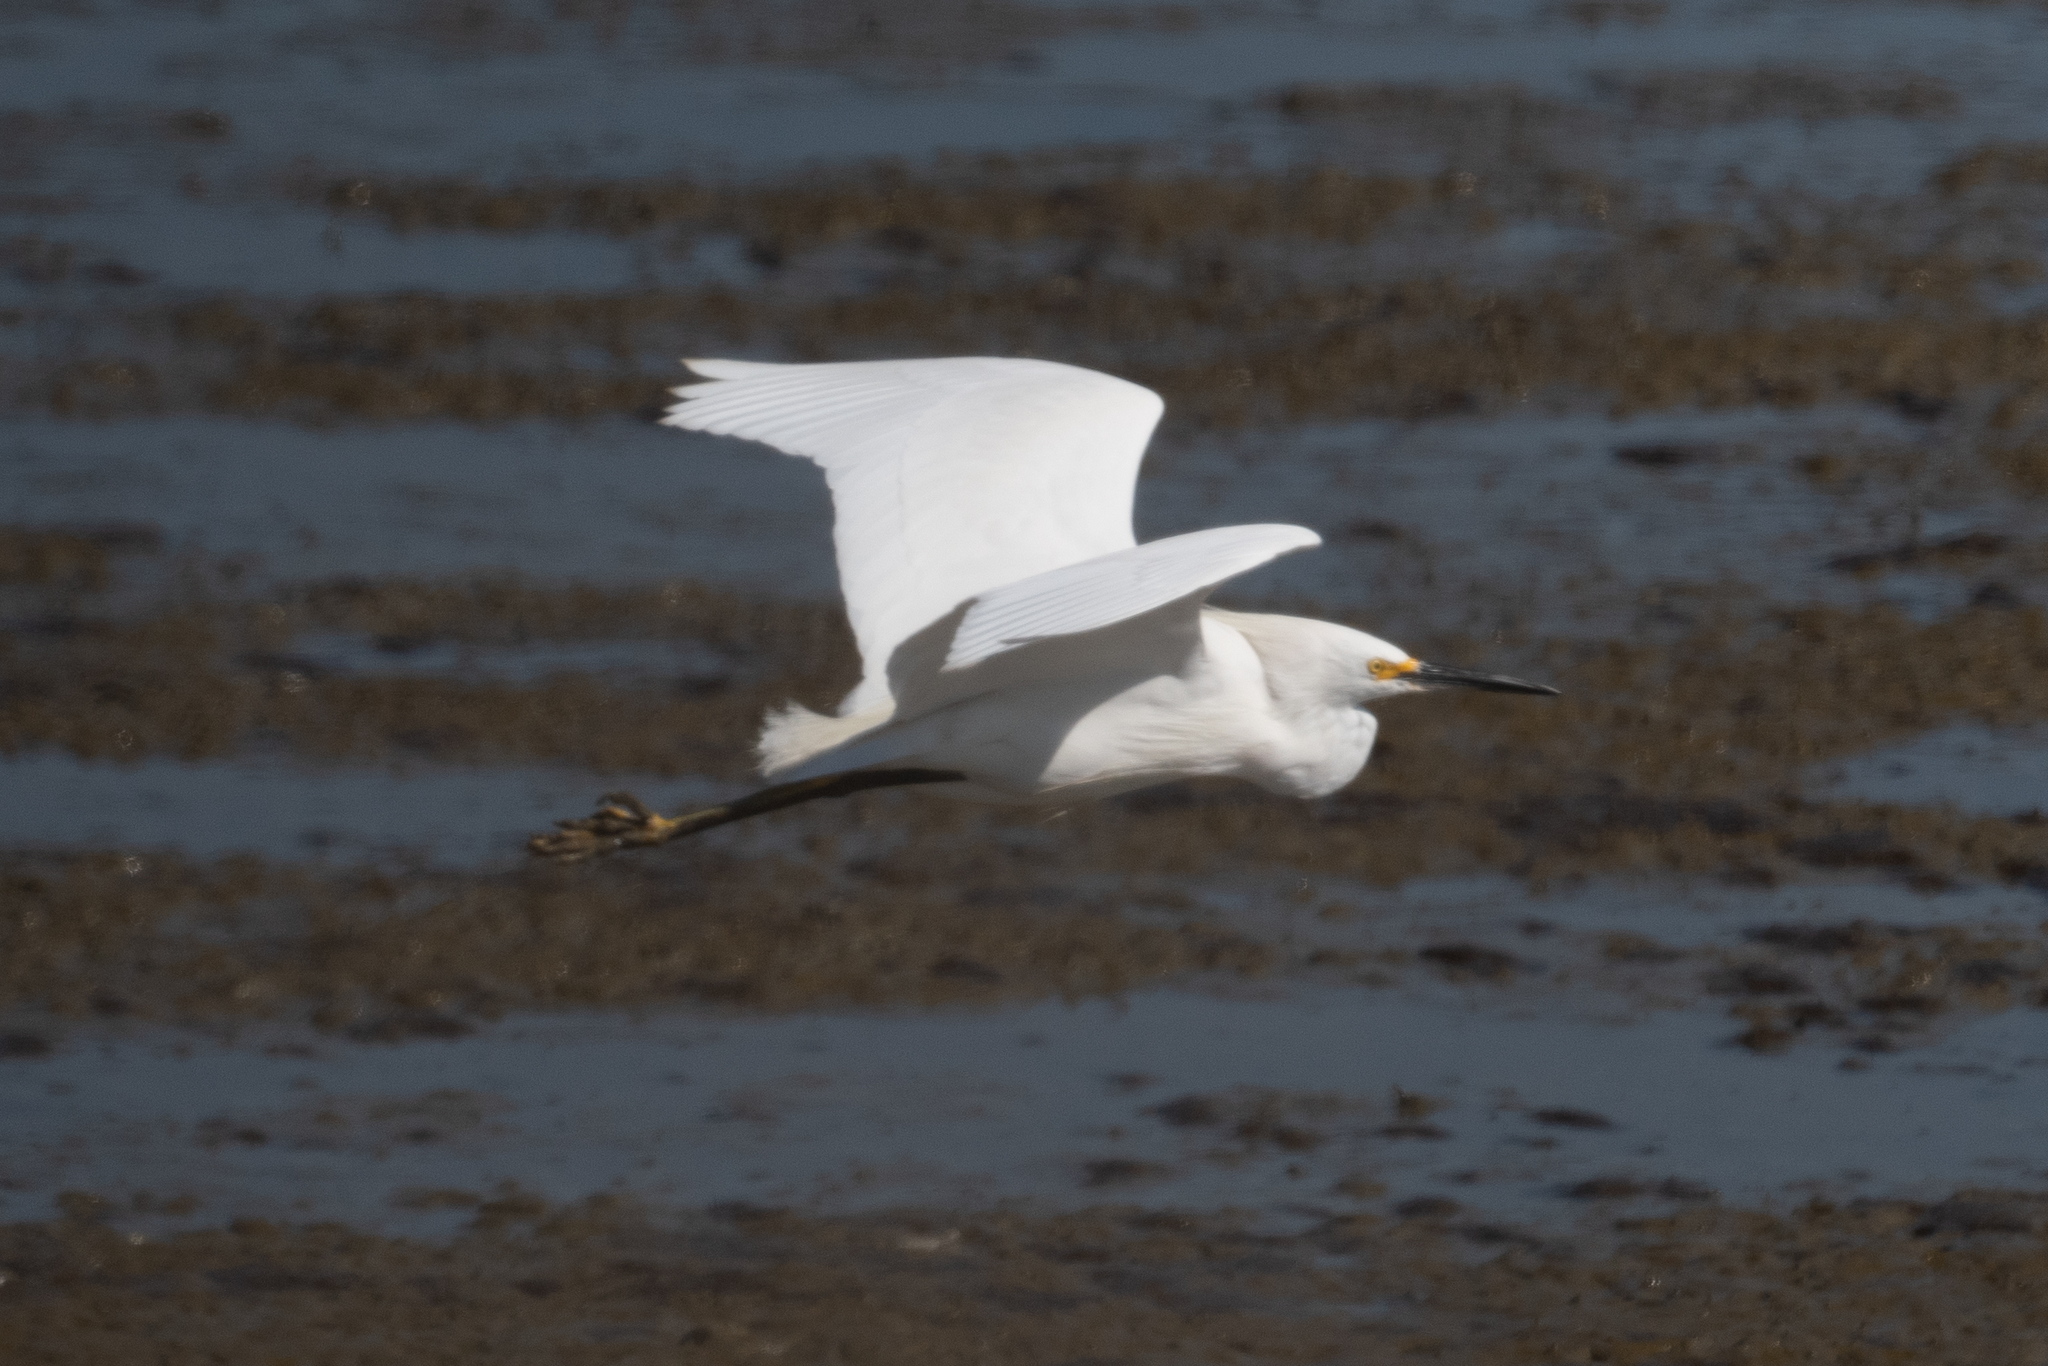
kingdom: Animalia
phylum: Chordata
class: Aves
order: Pelecaniformes
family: Ardeidae
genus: Egretta
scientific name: Egretta thula
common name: Snowy egret
